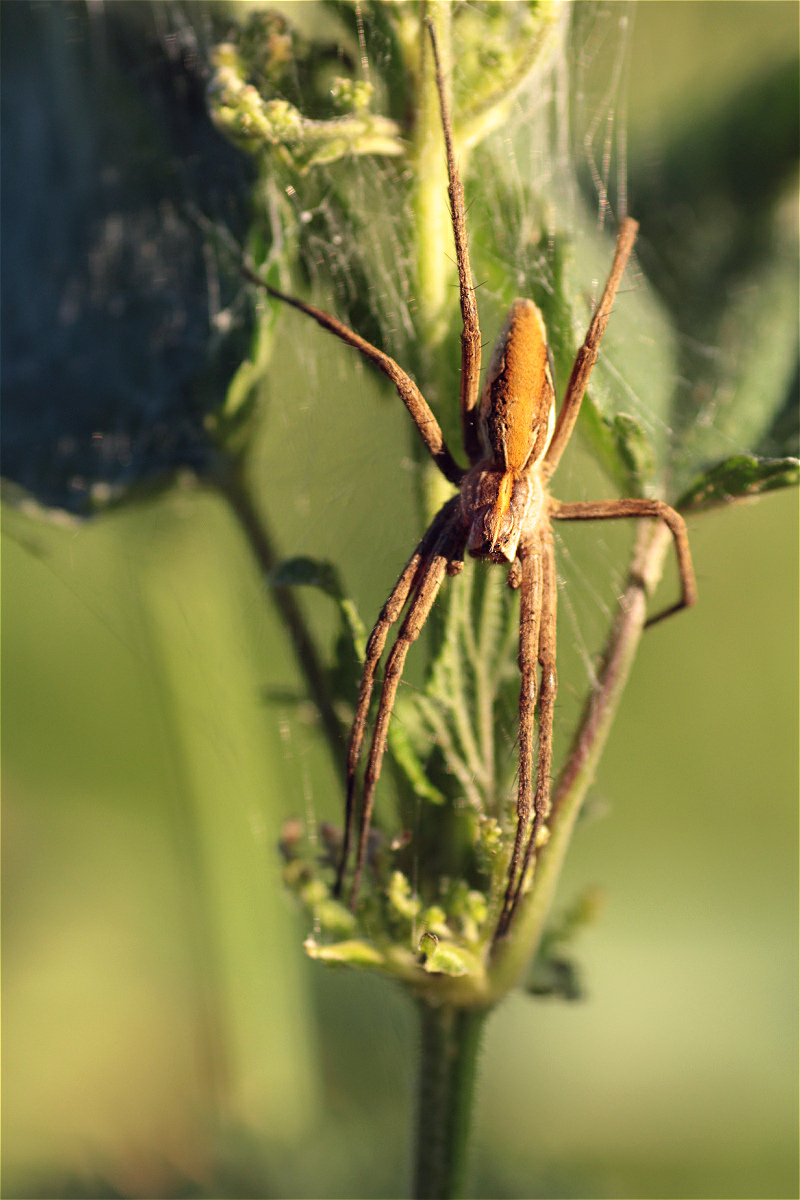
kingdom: Animalia
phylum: Arthropoda
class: Arachnida
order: Araneae
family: Pisauridae
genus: Pisaura
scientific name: Pisaura mirabilis
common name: Tent spider
